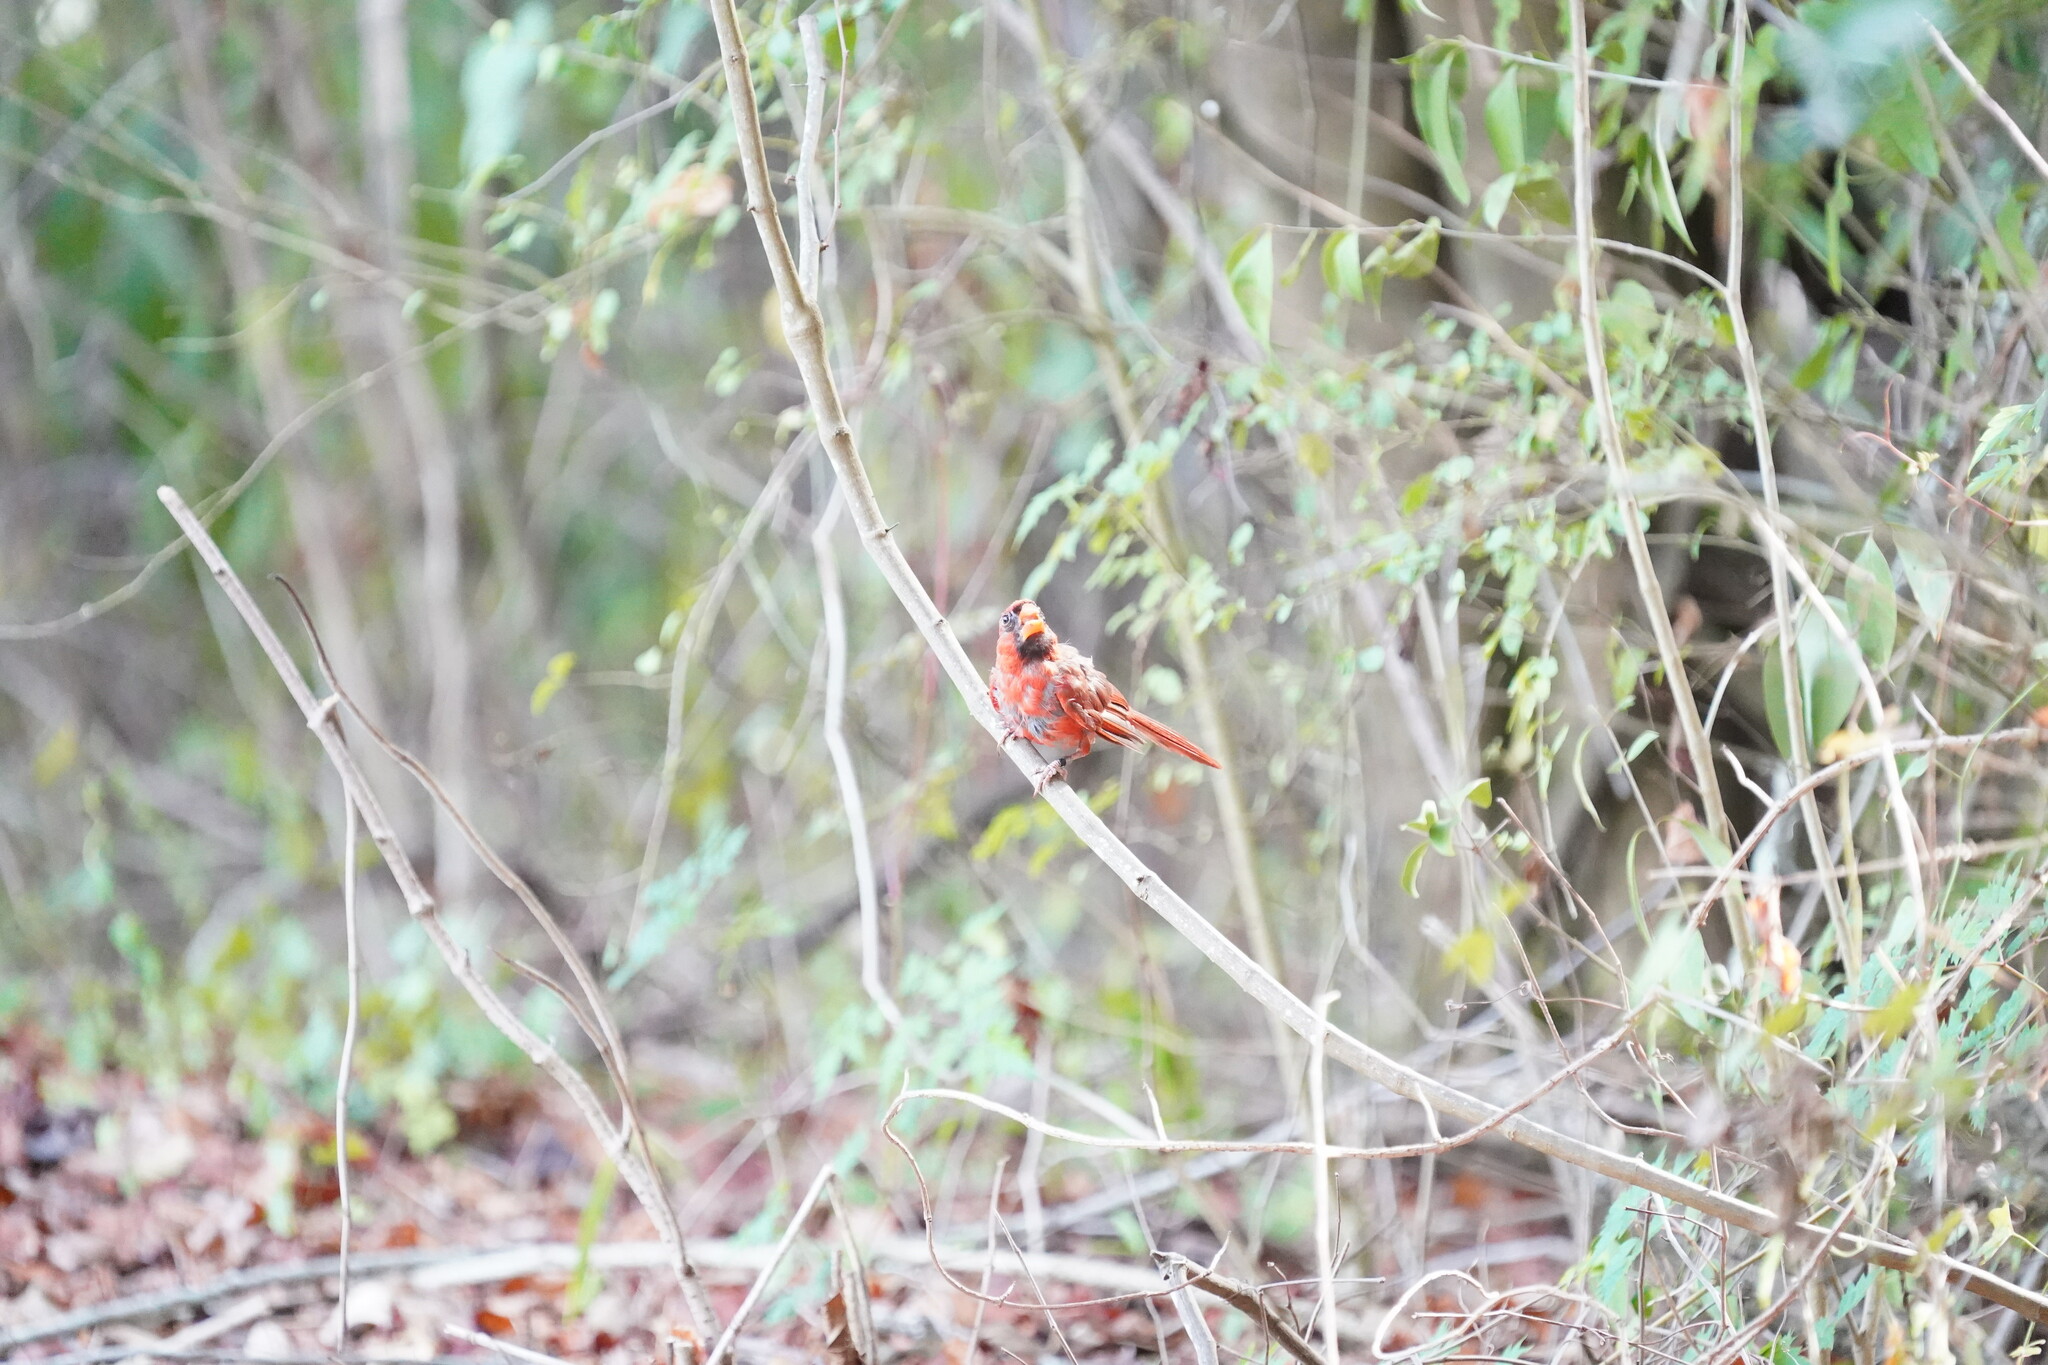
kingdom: Animalia
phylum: Chordata
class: Aves
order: Passeriformes
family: Cardinalidae
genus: Cardinalis
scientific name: Cardinalis cardinalis
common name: Northern cardinal
